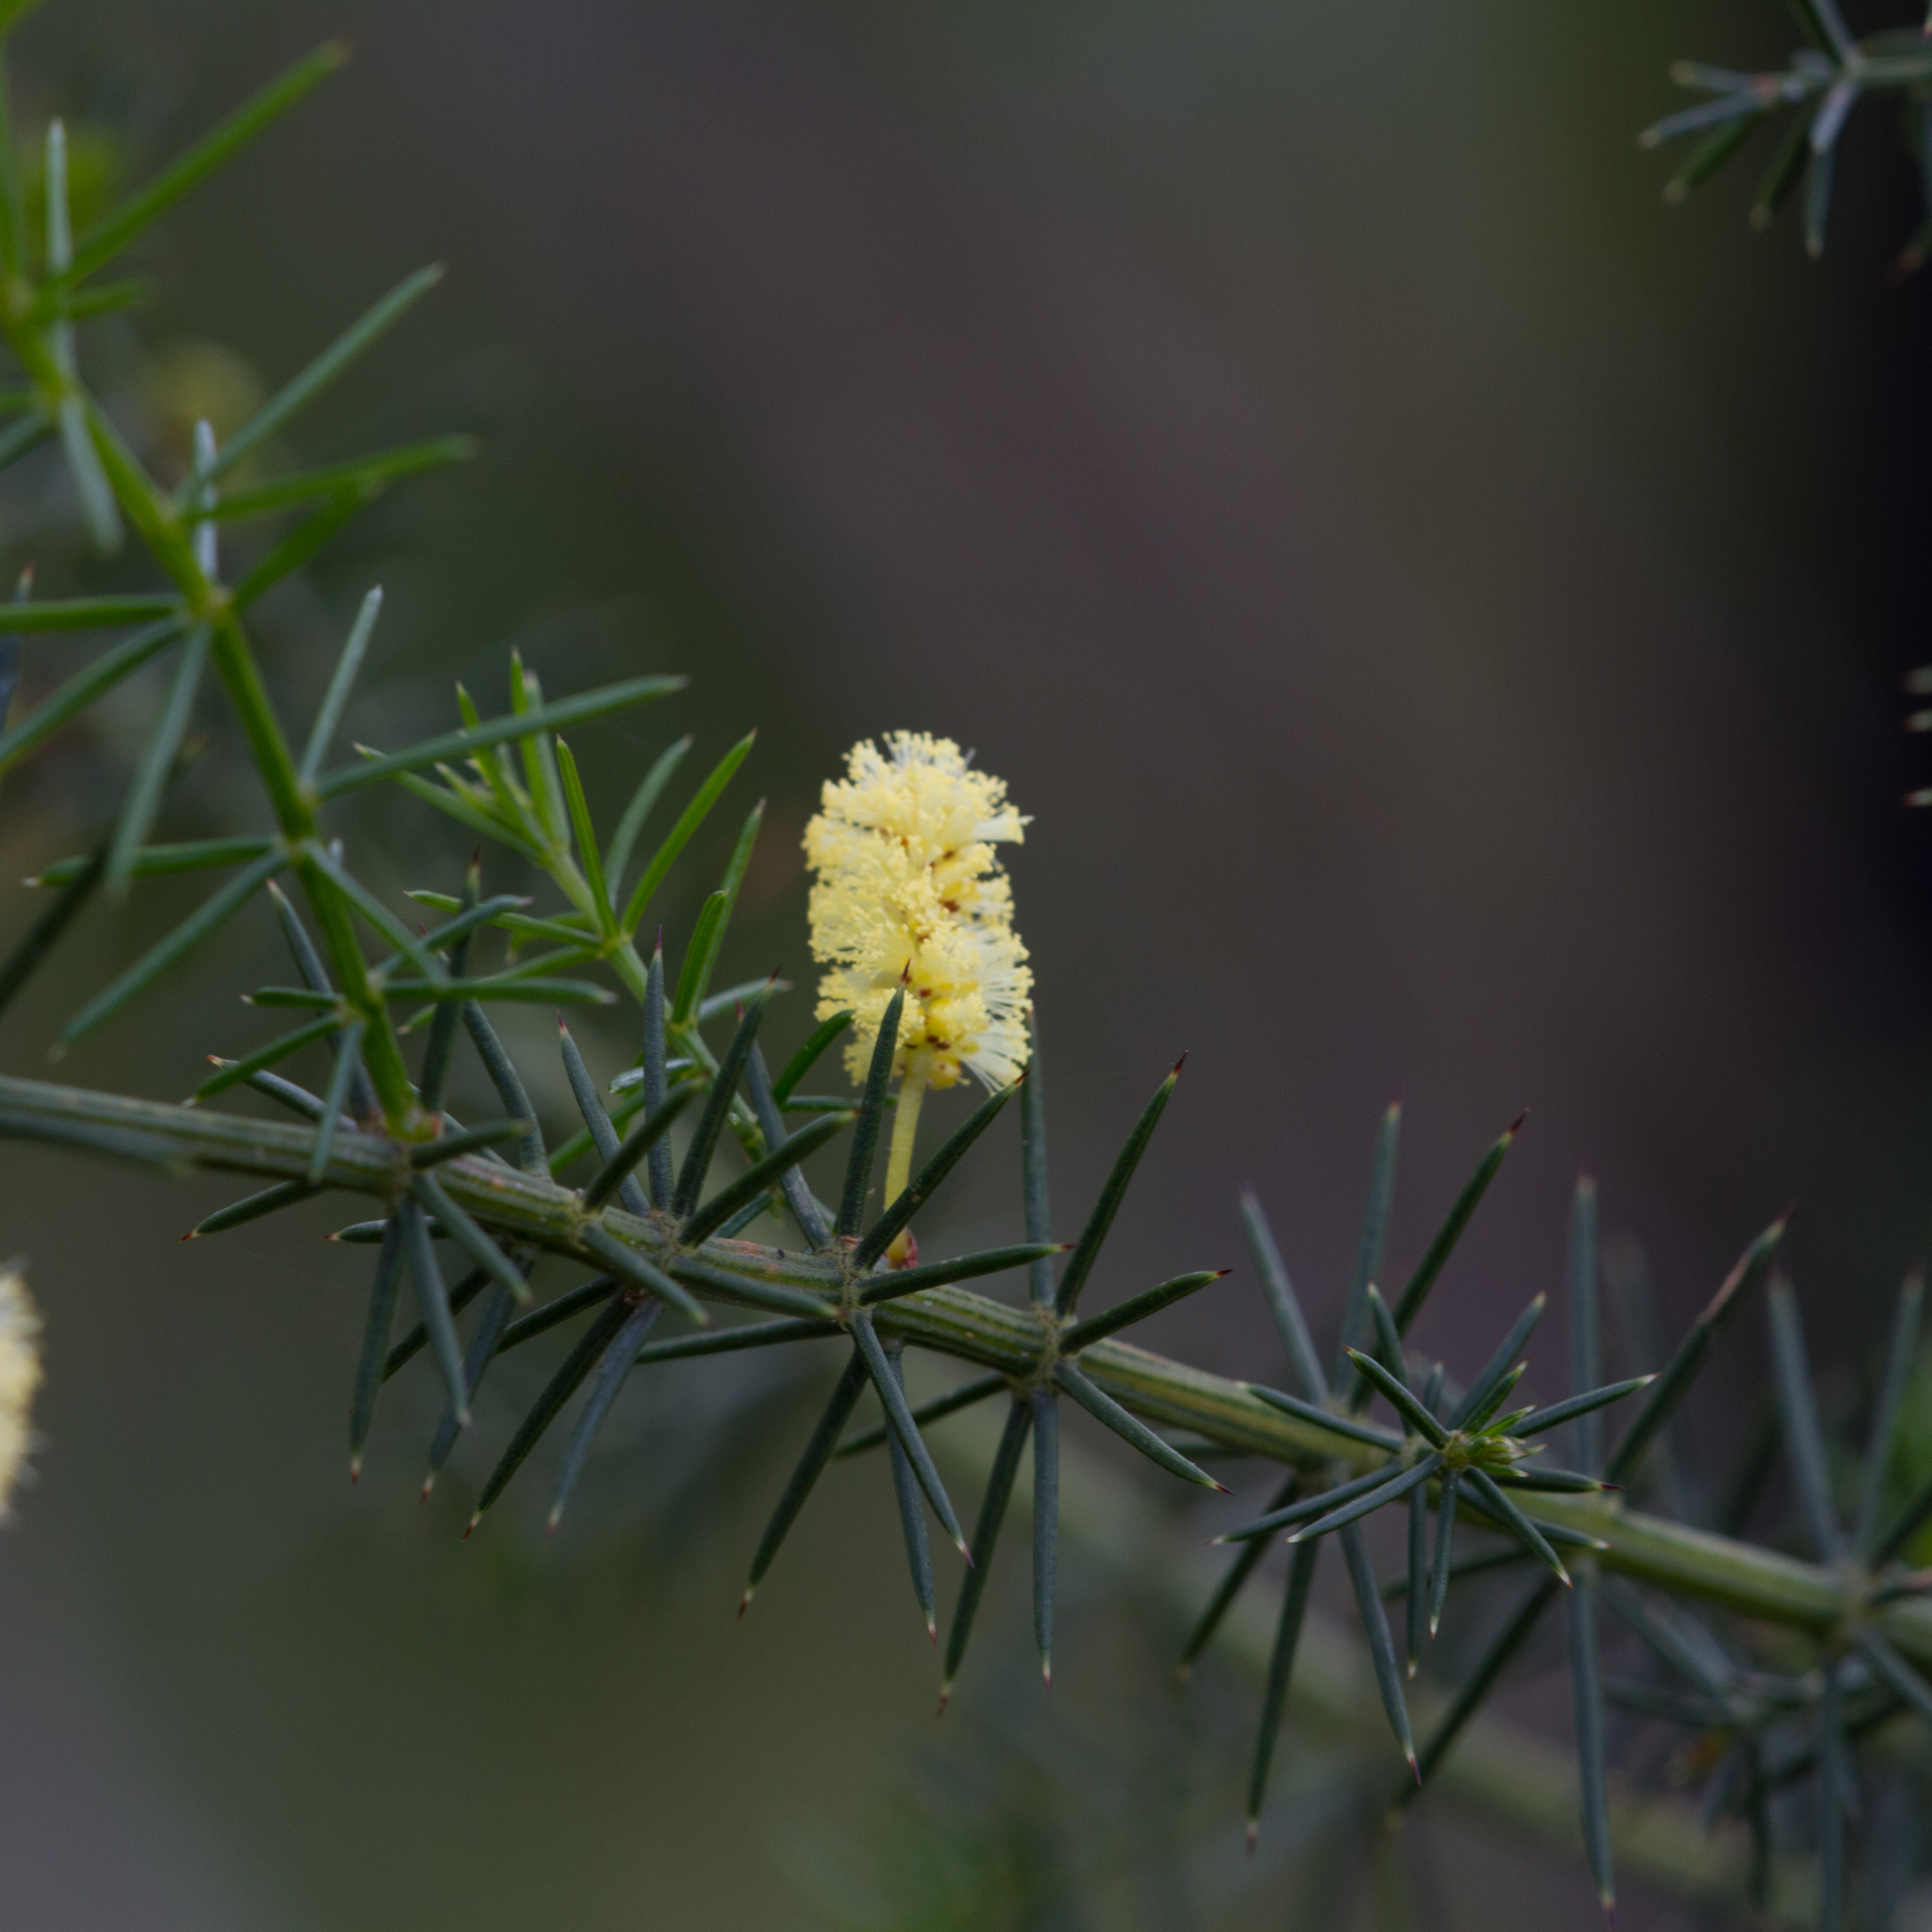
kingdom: Plantae
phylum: Tracheophyta
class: Magnoliopsida
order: Fabales
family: Fabaceae
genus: Acacia
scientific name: Acacia verticillata
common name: Prickly moses
